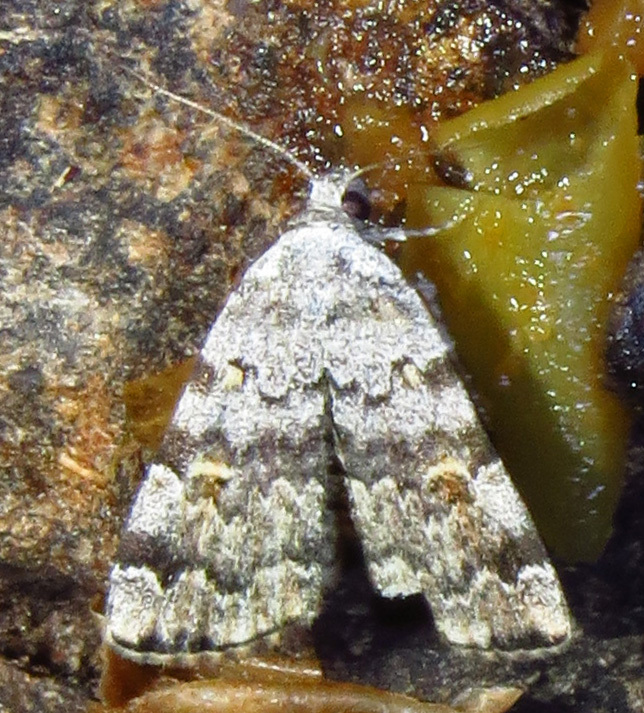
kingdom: Animalia
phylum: Arthropoda
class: Insecta
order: Lepidoptera
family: Erebidae
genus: Idia
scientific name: Idia americalis
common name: American idia moth
